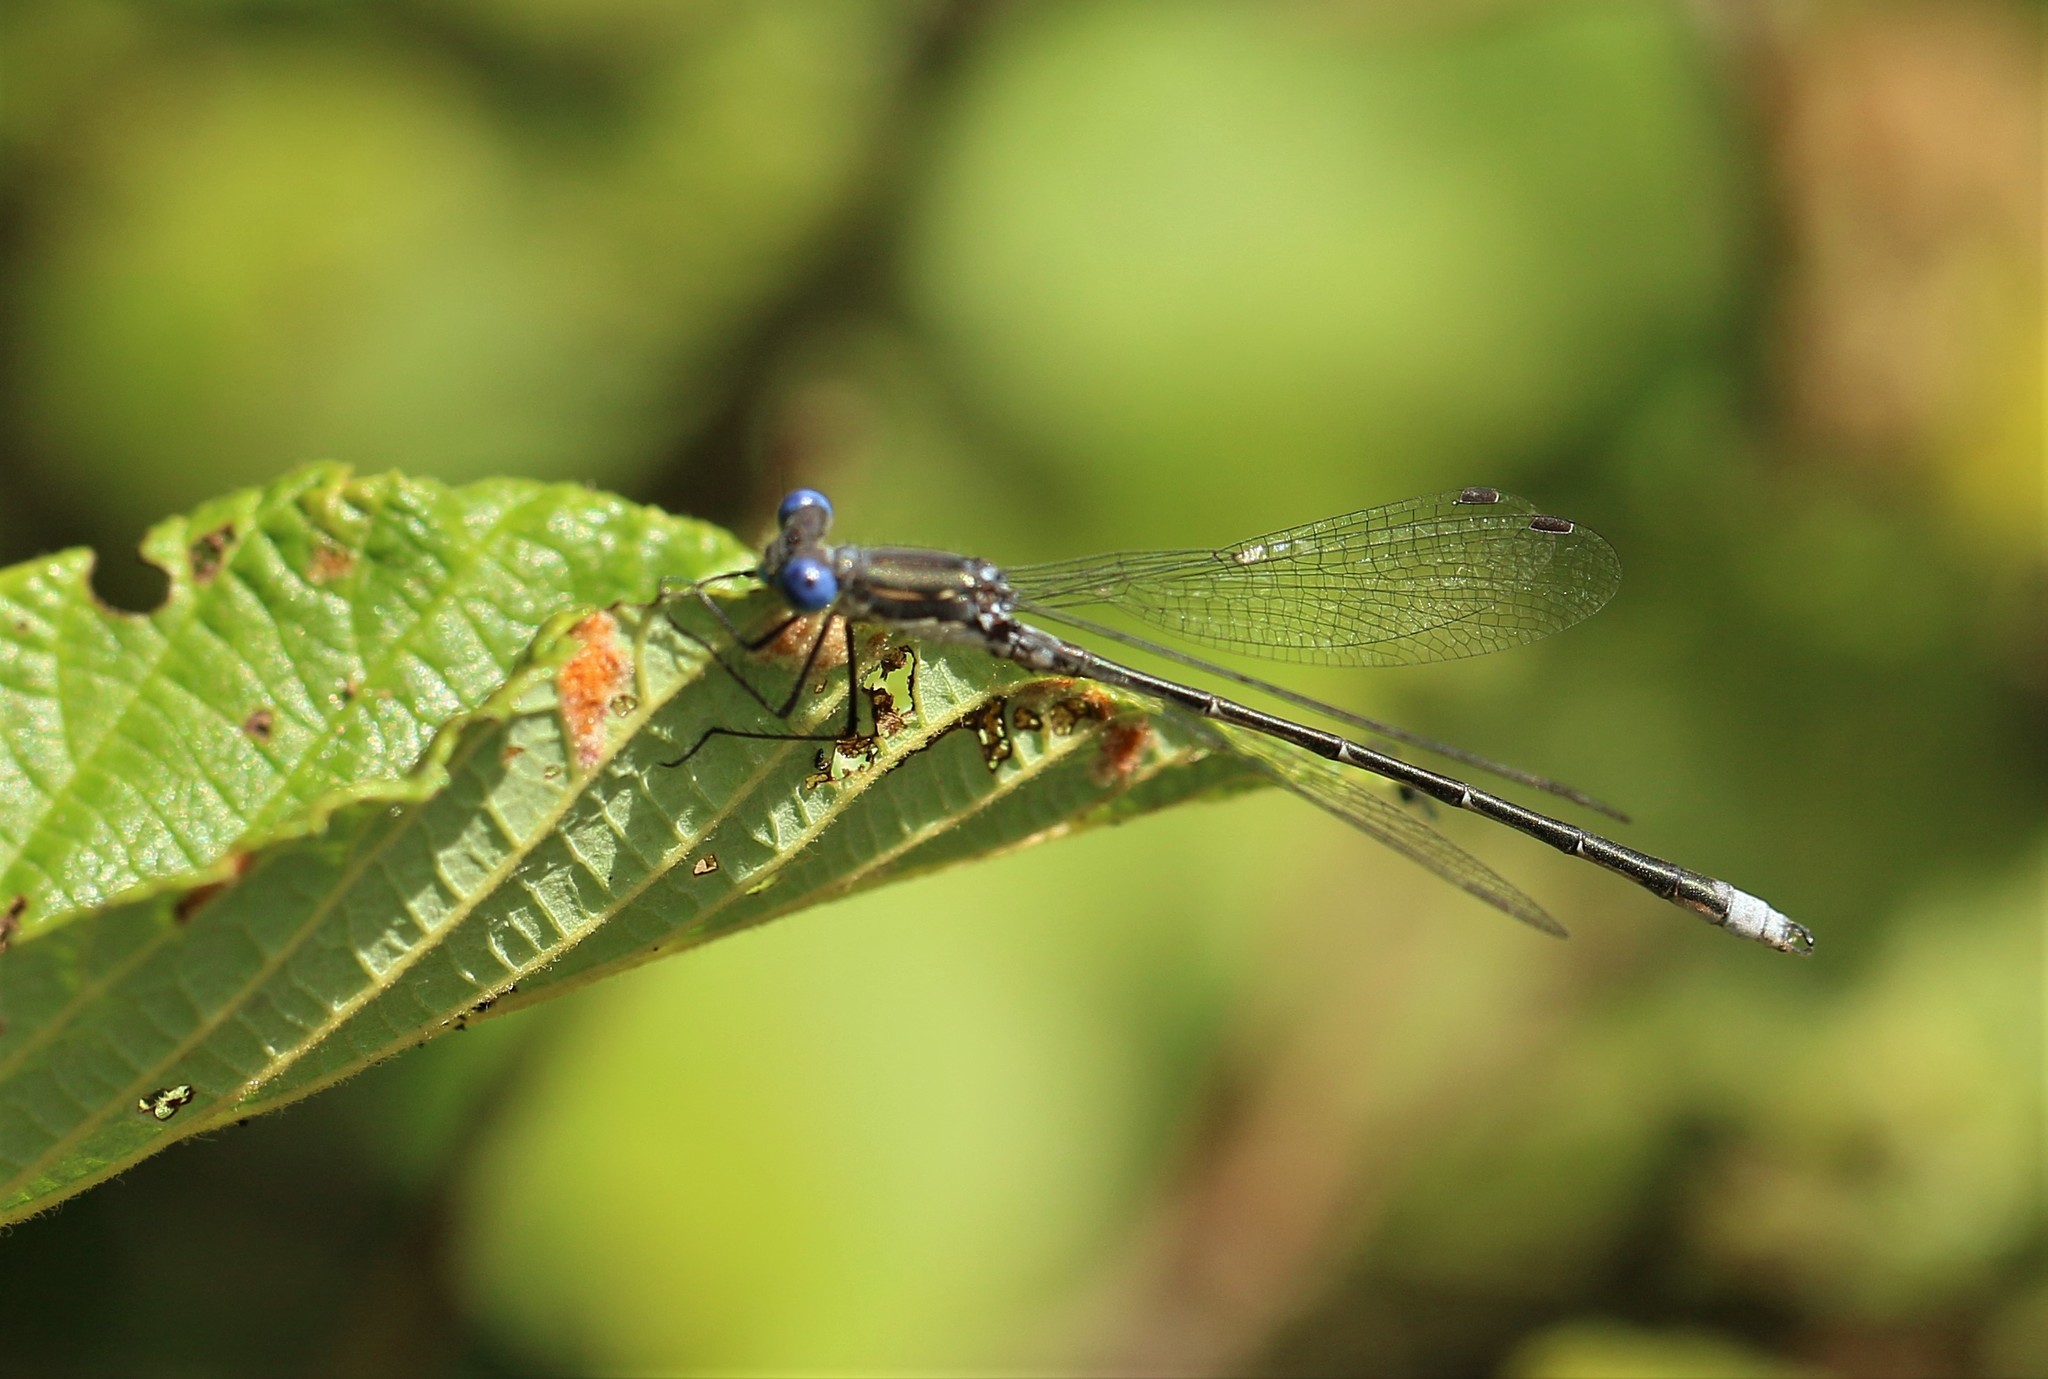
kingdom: Animalia
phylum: Arthropoda
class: Insecta
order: Odonata
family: Lestidae
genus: Lestes
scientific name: Lestes congener
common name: Spotted spreadwing
